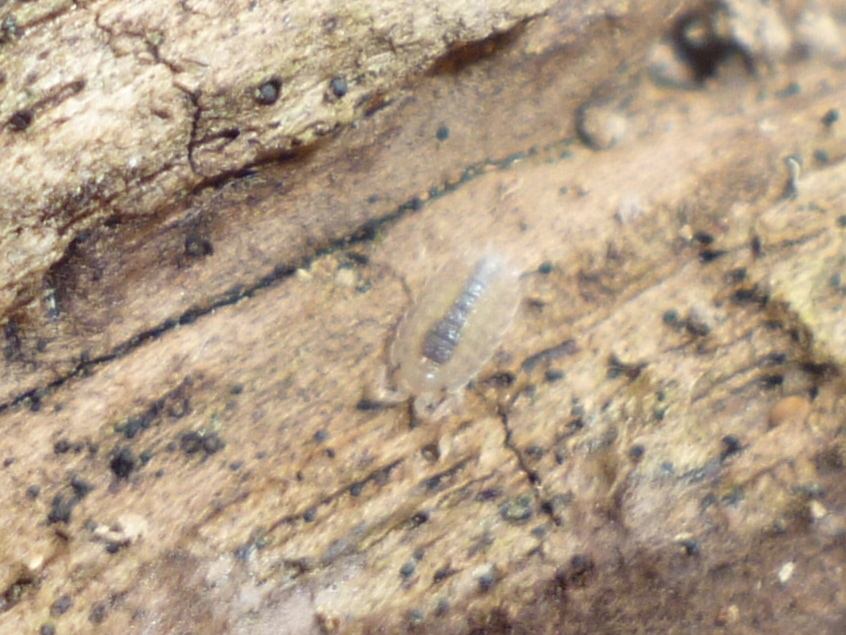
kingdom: Animalia
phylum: Arthropoda
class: Malacostraca
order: Isopoda
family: Oniscidae
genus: Oniscus
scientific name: Oniscus asellus
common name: Common shiny woodlouse
